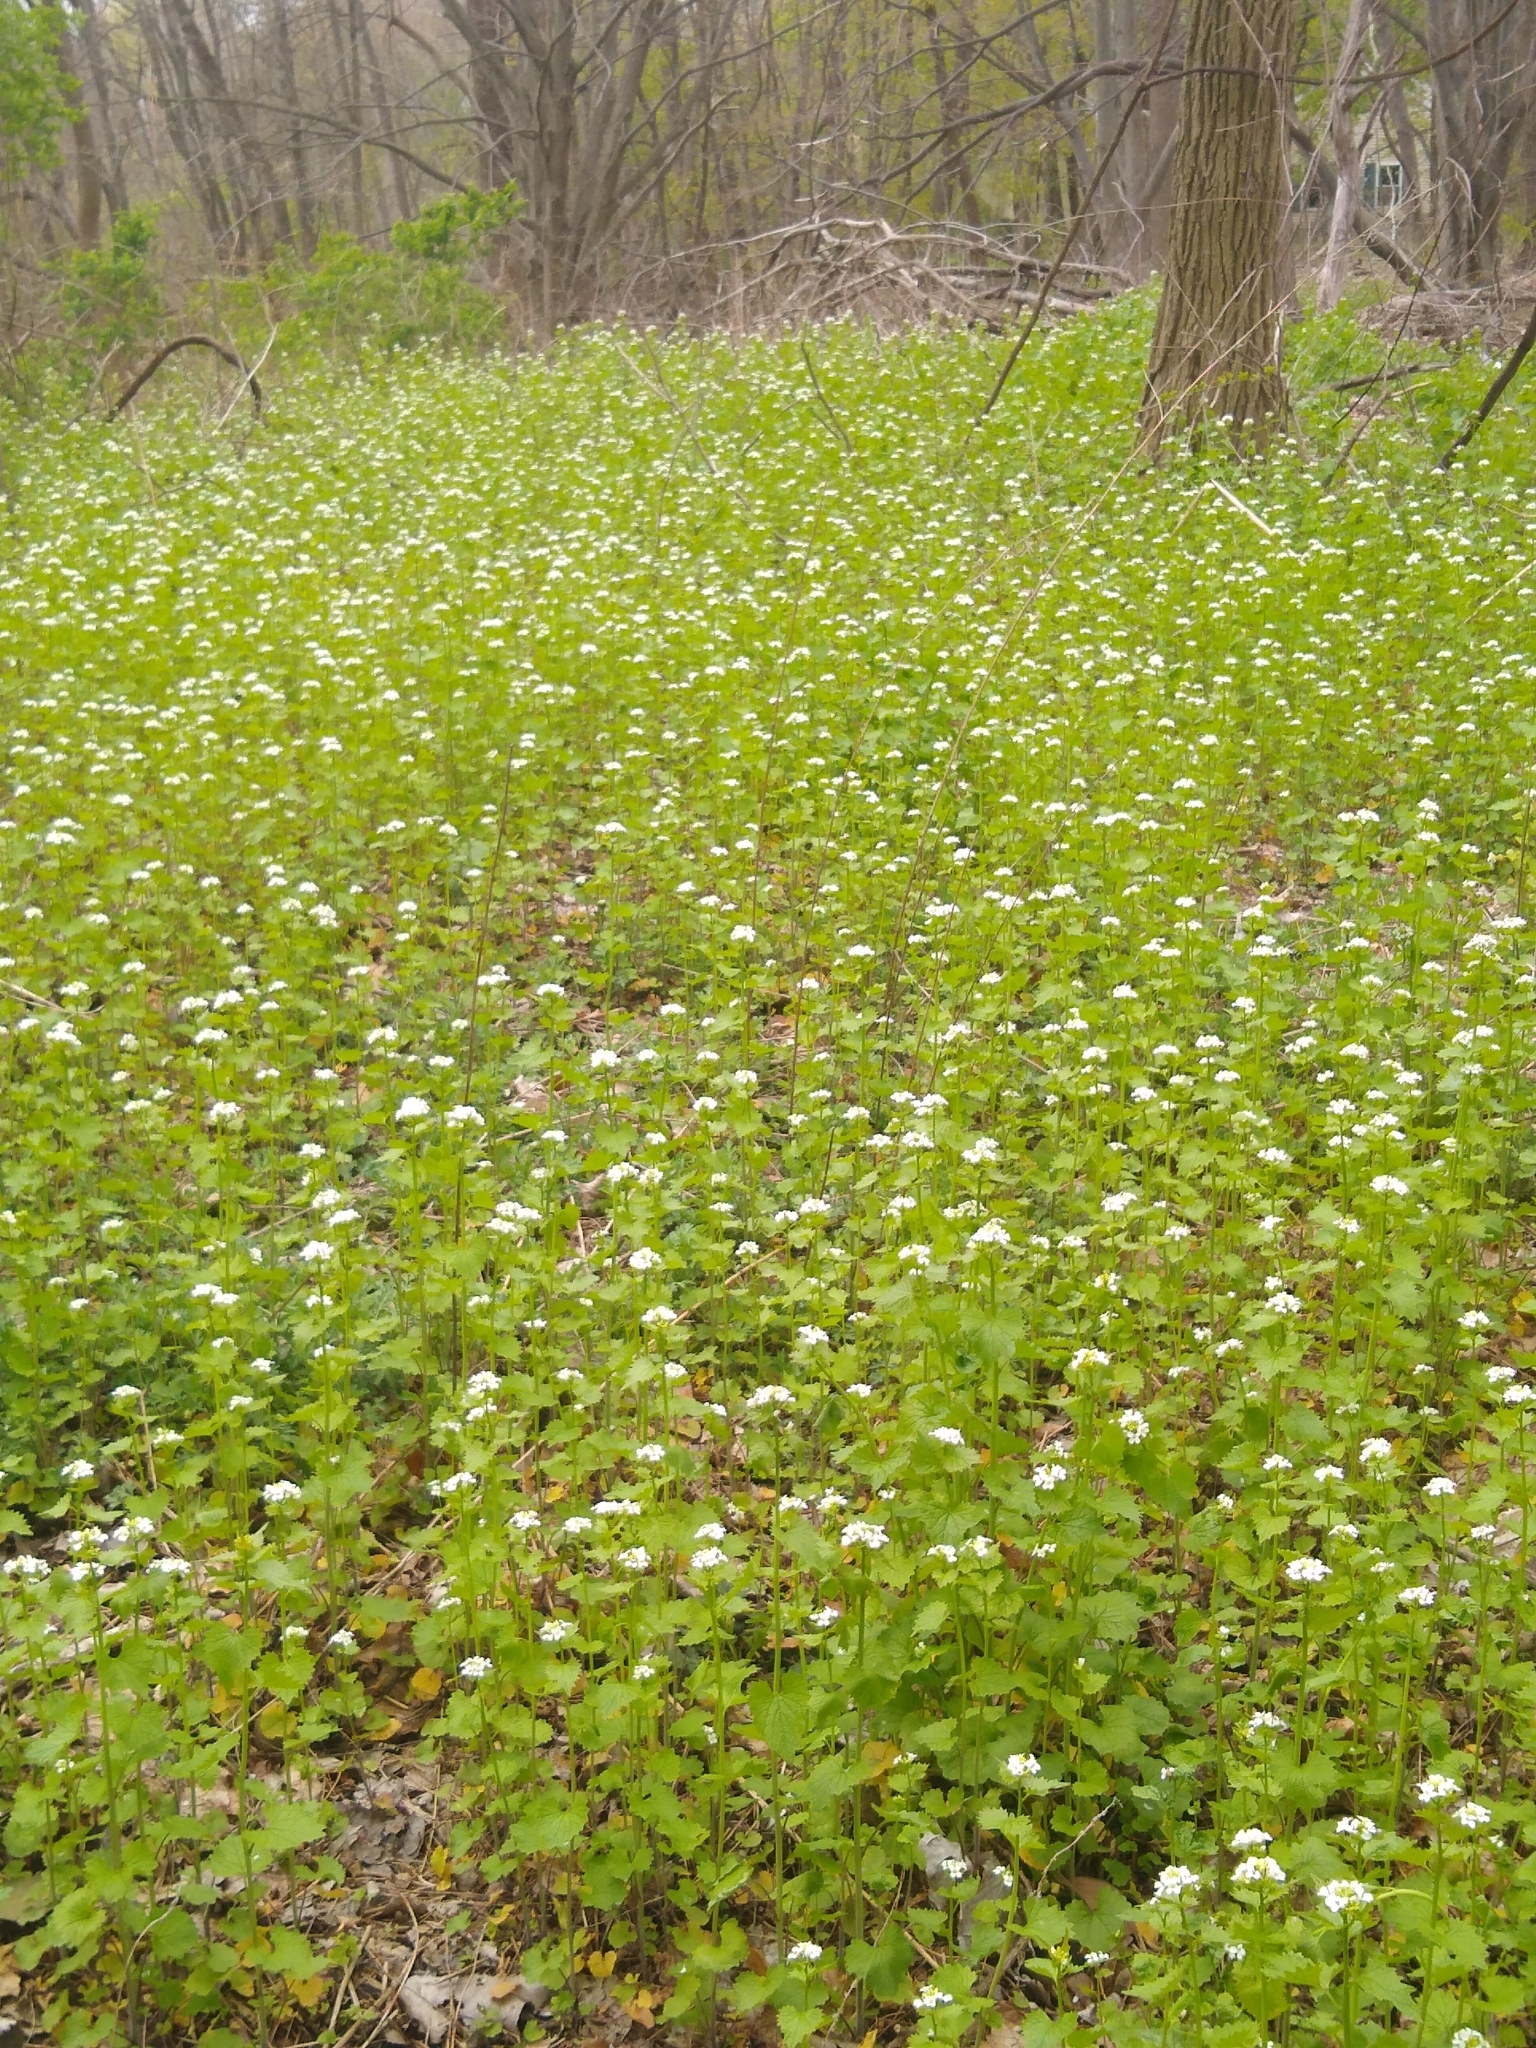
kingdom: Plantae
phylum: Tracheophyta
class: Magnoliopsida
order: Brassicales
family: Brassicaceae
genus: Alliaria
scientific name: Alliaria petiolata
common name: Garlic mustard
